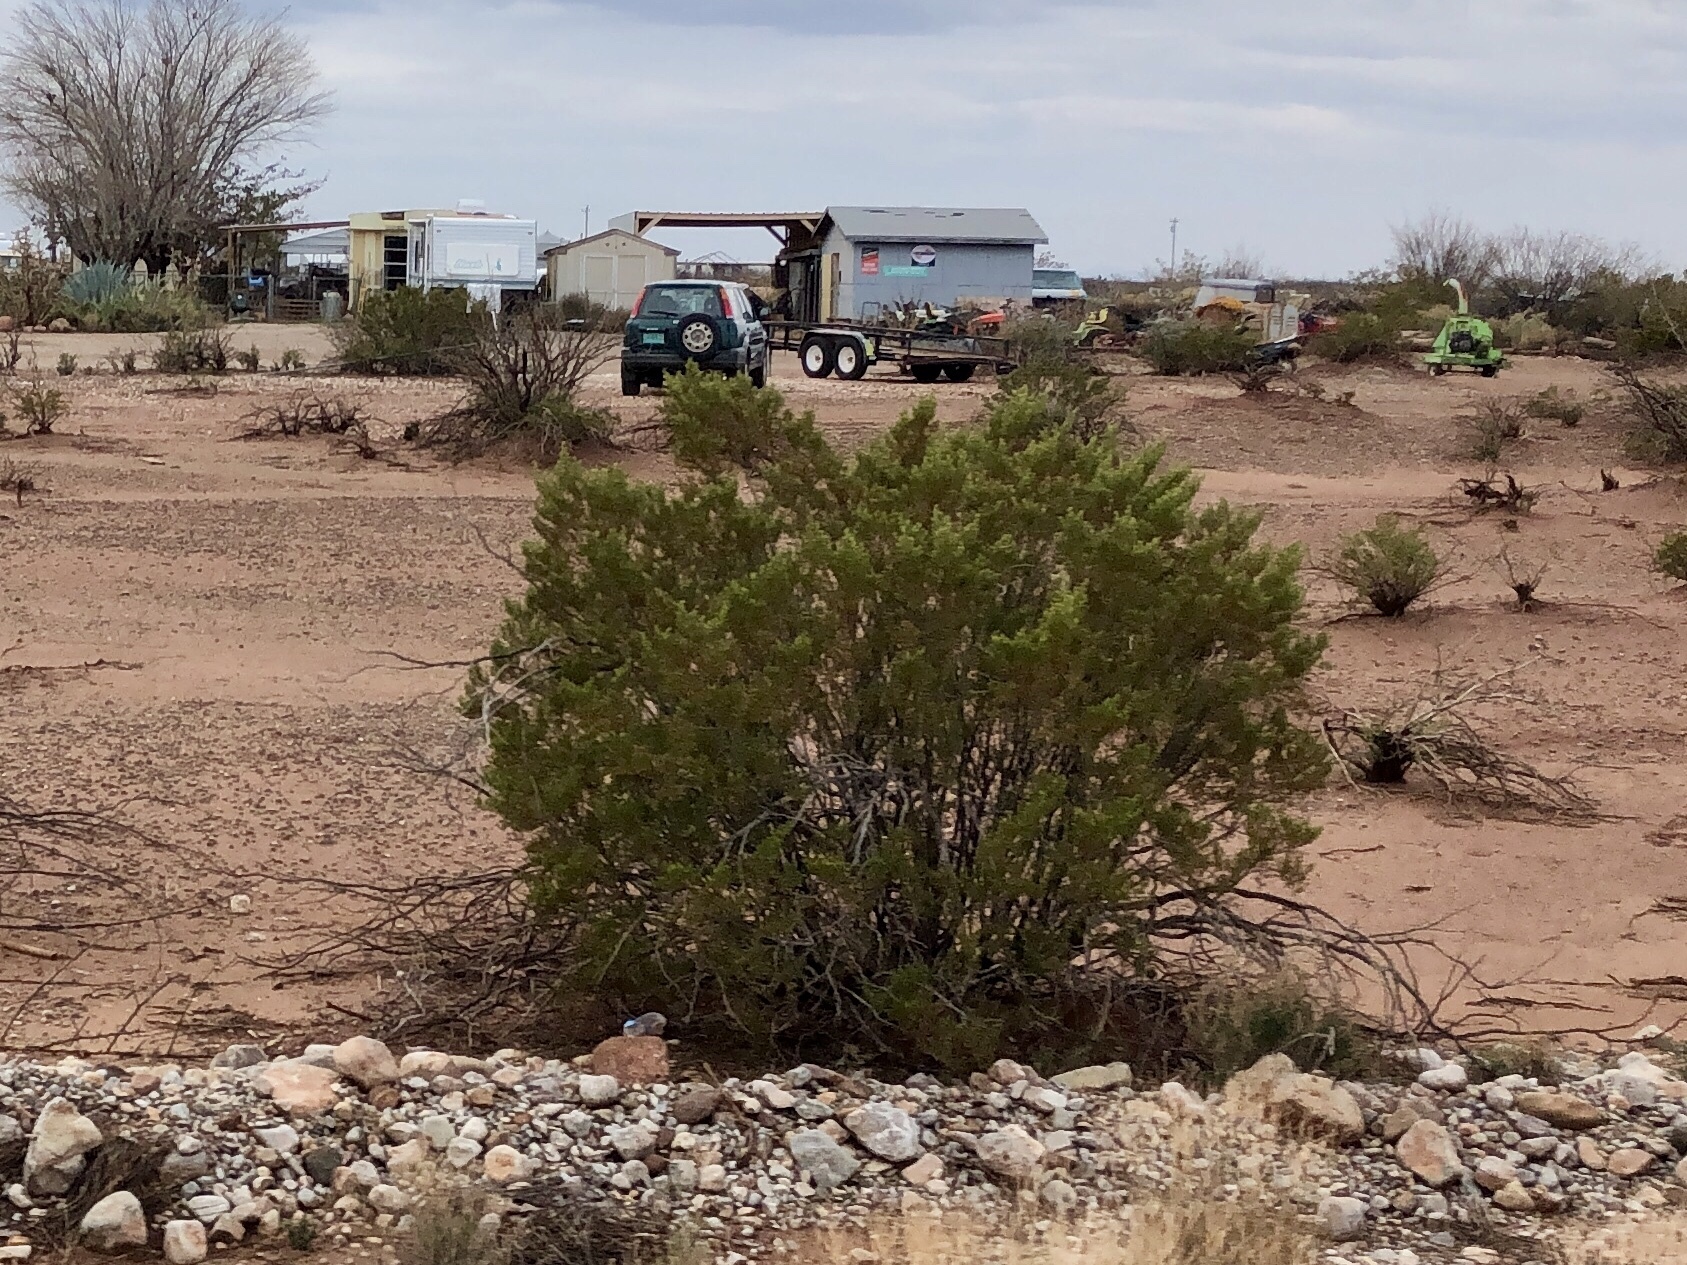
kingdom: Plantae
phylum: Tracheophyta
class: Magnoliopsida
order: Zygophyllales
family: Zygophyllaceae
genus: Larrea
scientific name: Larrea tridentata
